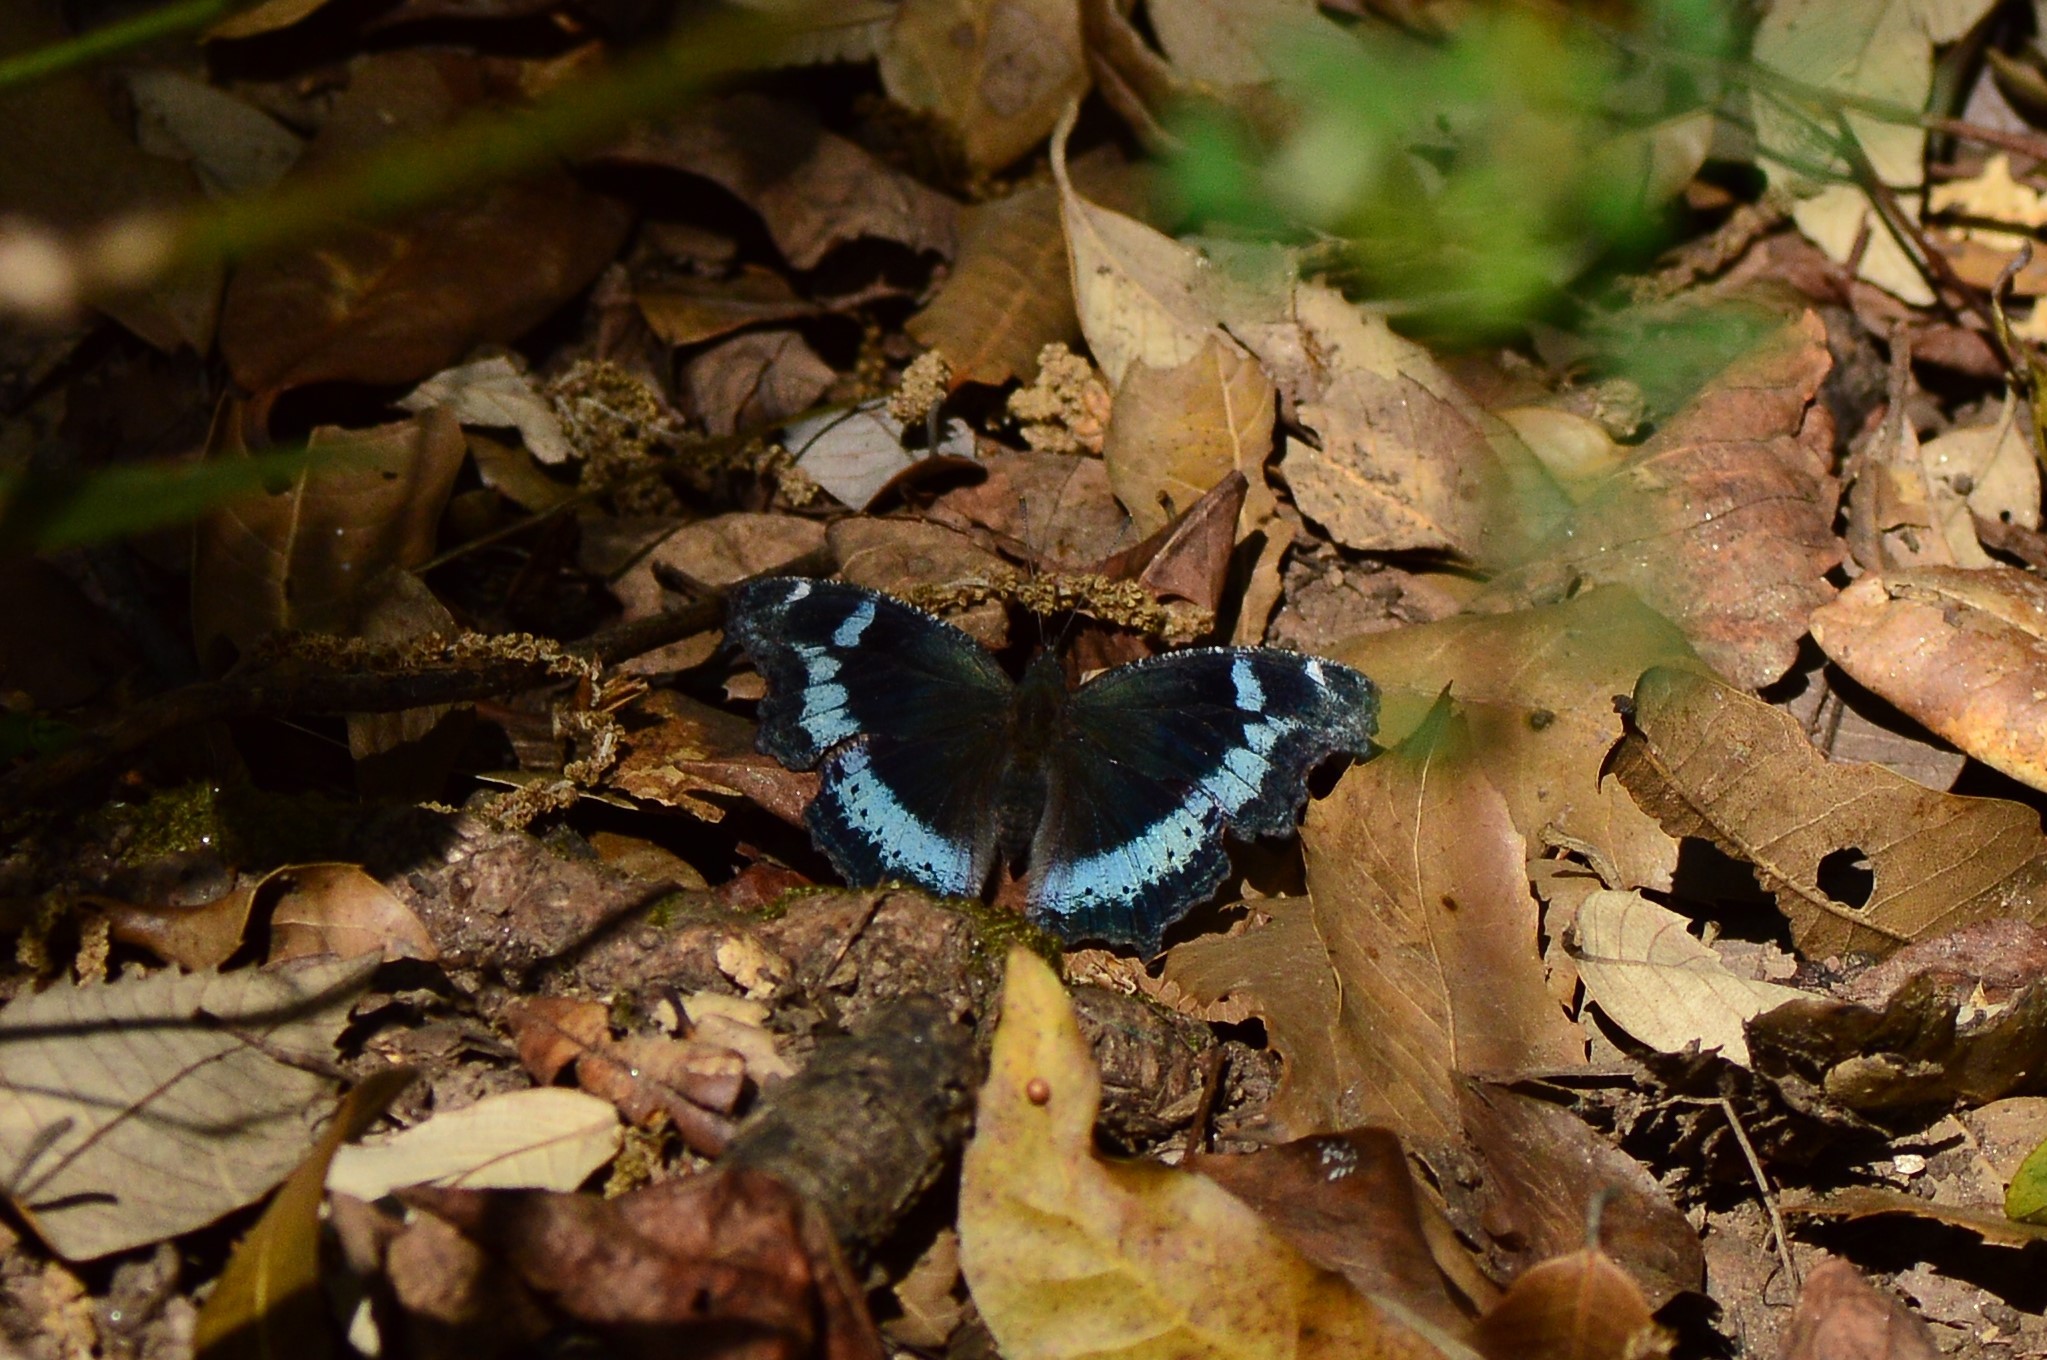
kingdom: Animalia
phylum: Arthropoda
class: Insecta
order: Lepidoptera
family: Nymphalidae
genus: Vanessa
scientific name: Vanessa Kaniska canace
